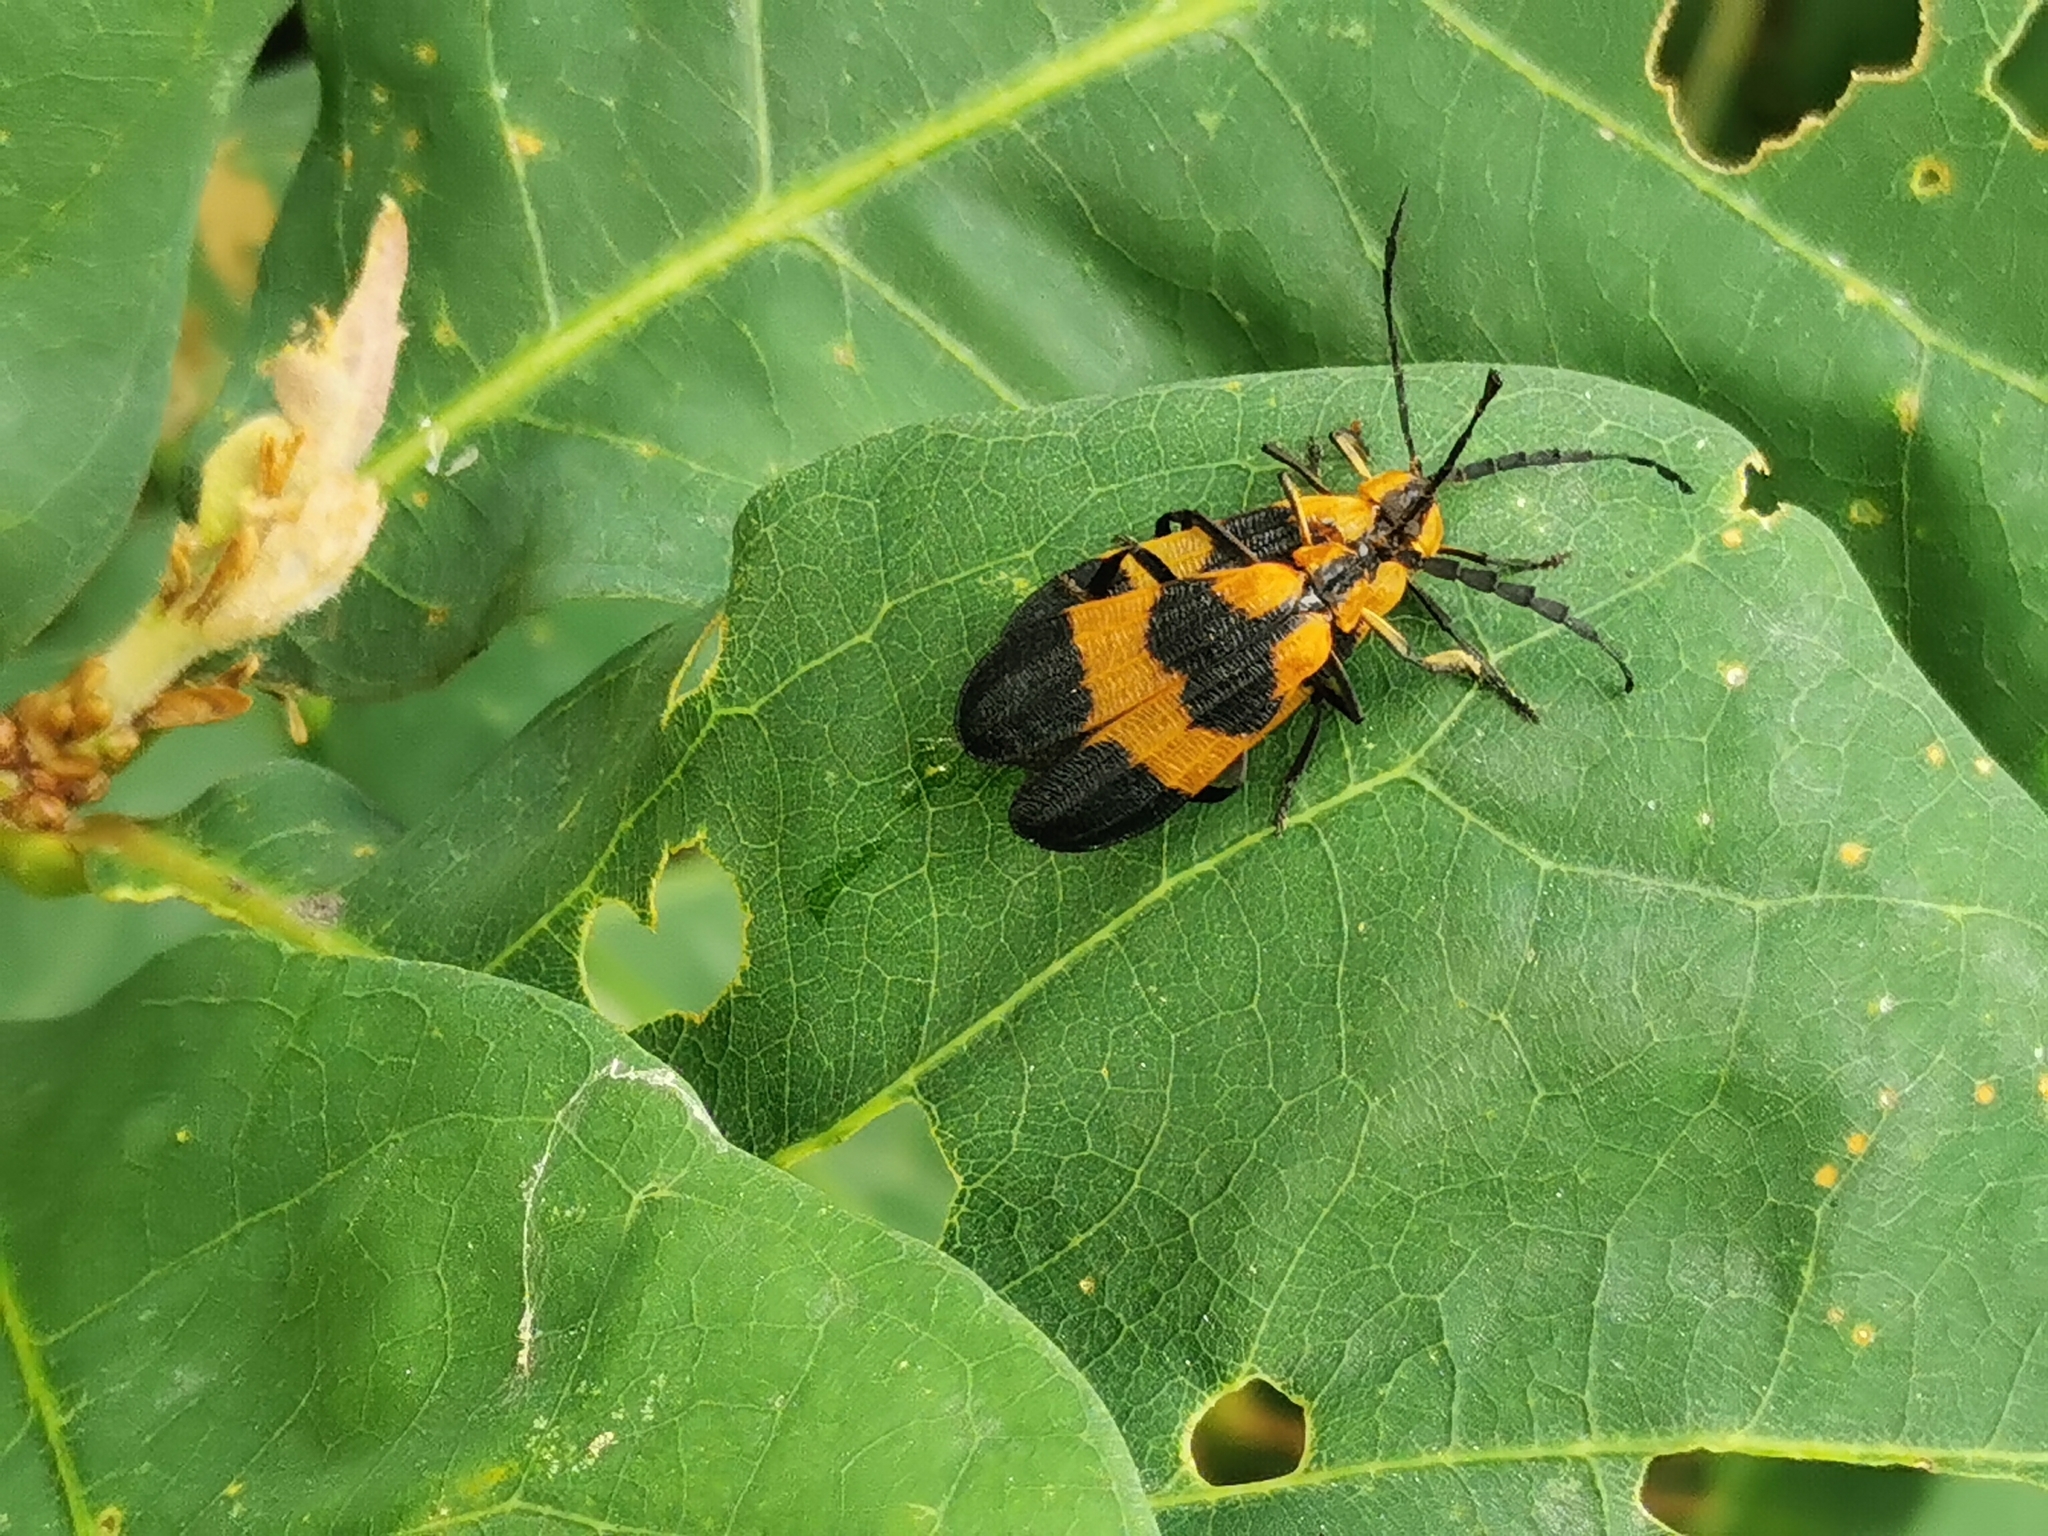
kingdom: Animalia
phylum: Arthropoda
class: Insecta
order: Coleoptera
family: Lycidae
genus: Calopteron
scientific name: Calopteron reticulatum
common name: Banded net-winged beetle
